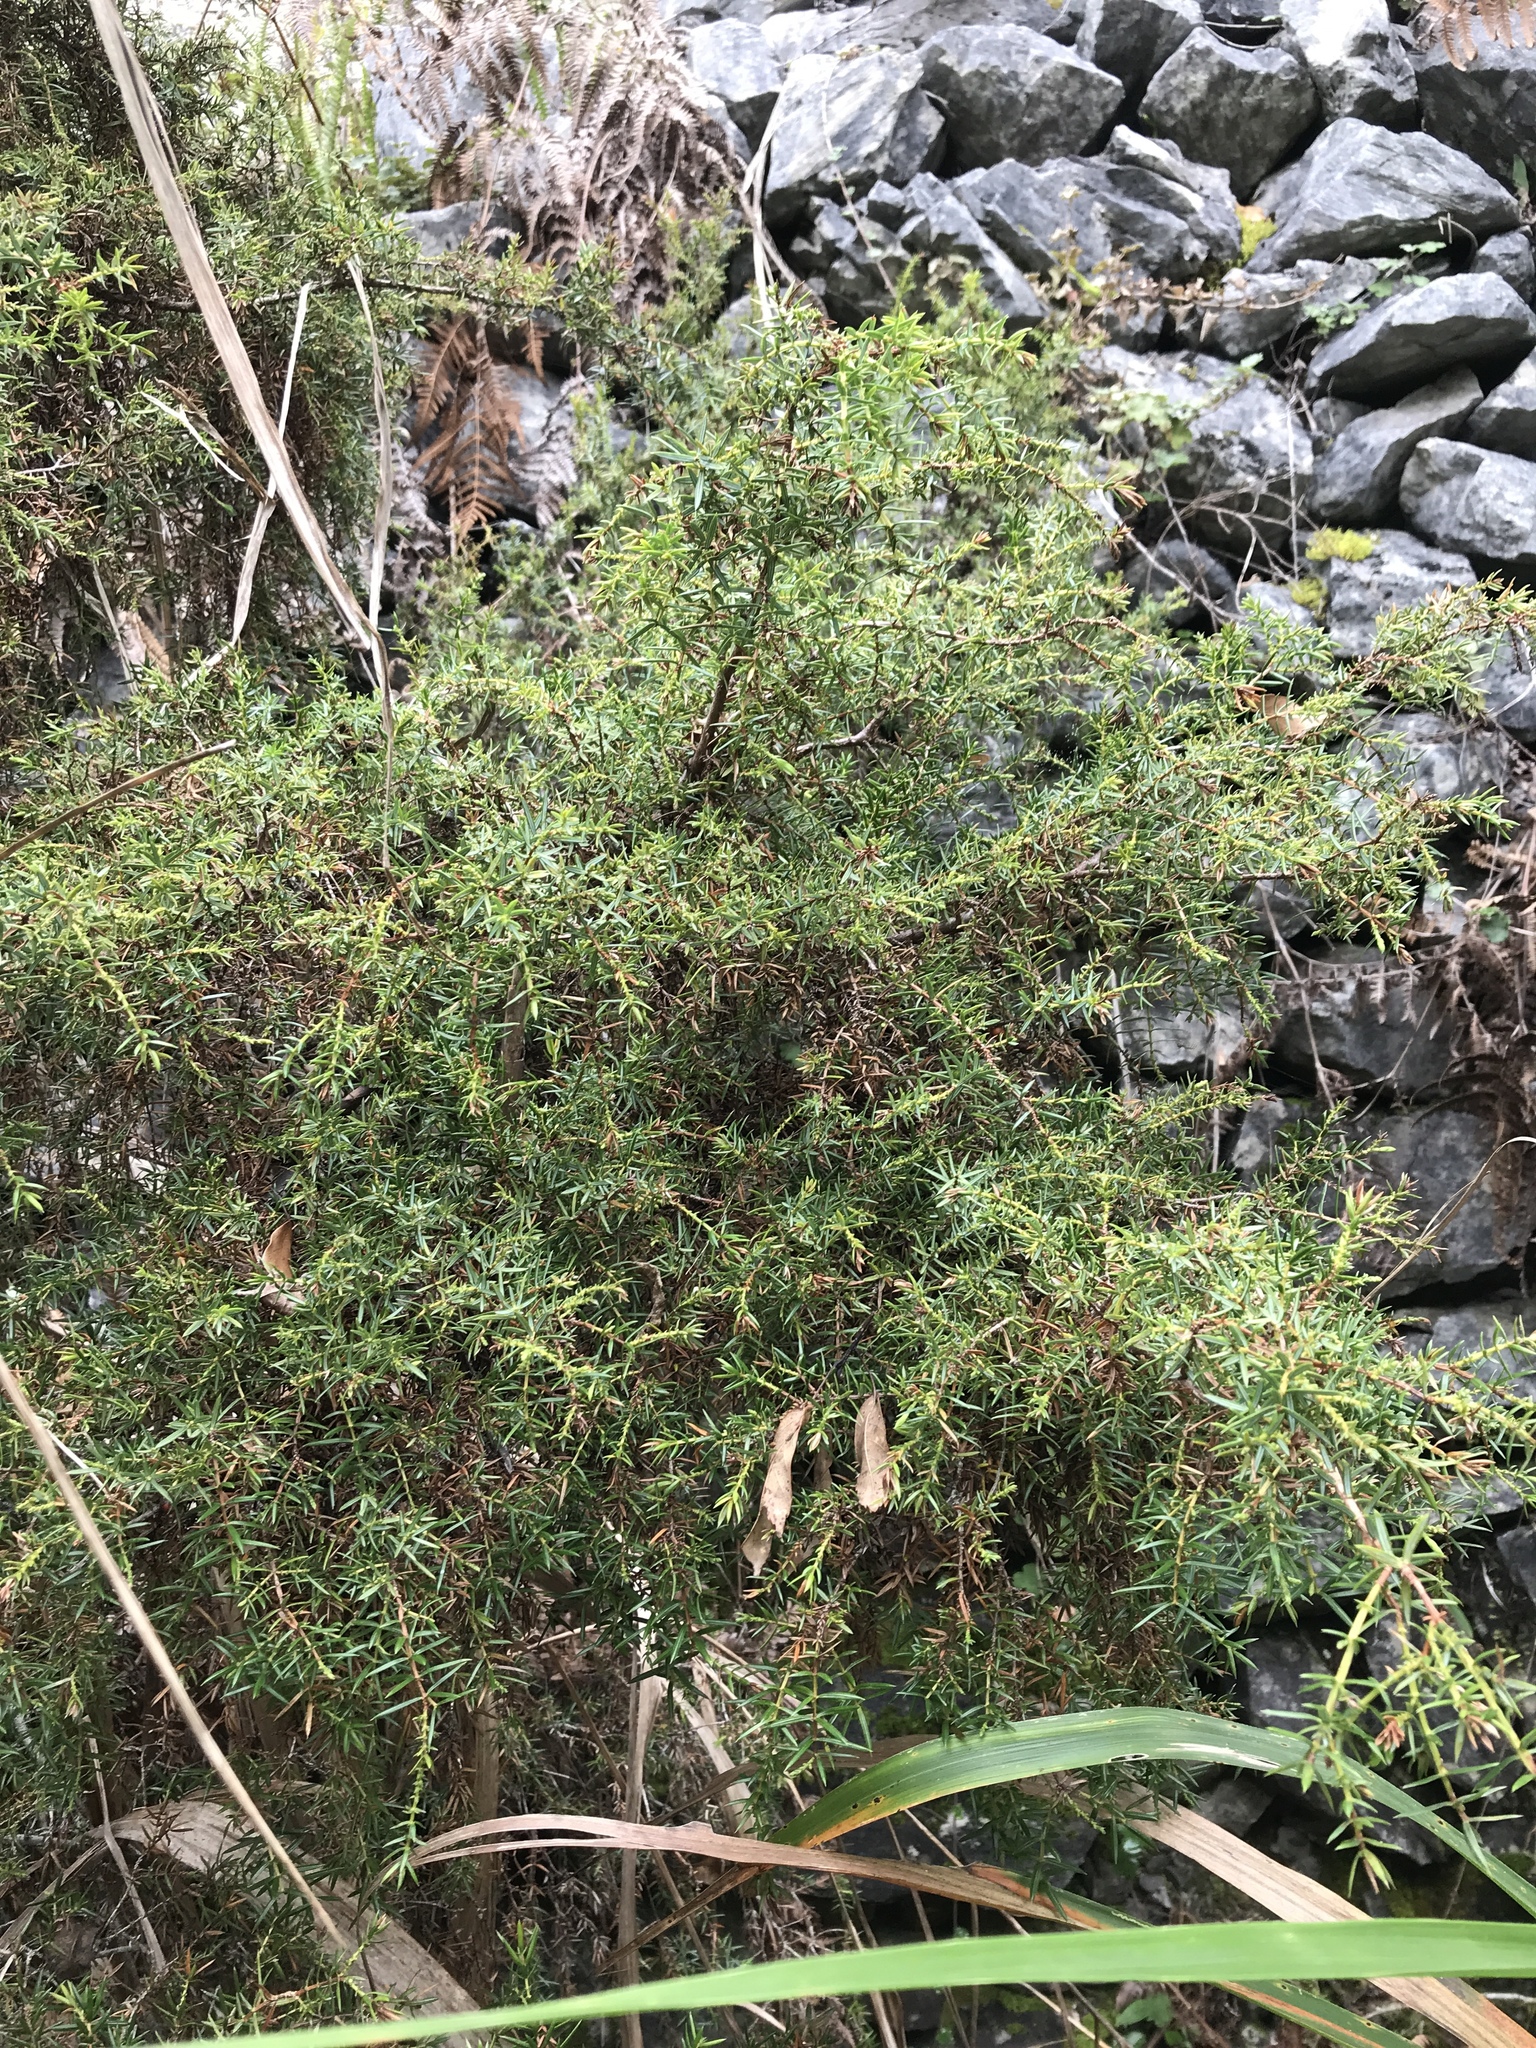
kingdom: Plantae
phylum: Tracheophyta
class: Pinopsida
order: Pinales
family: Cupressaceae
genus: Juniperus
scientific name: Juniperus formosana
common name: Formosan juniper
